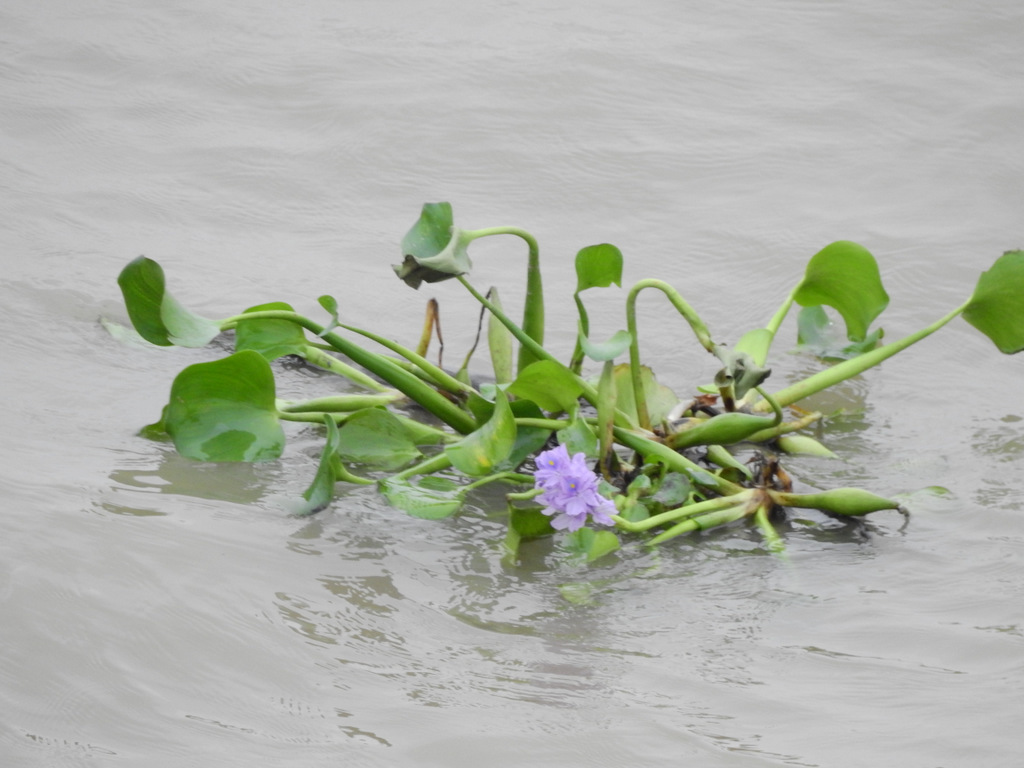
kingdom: Plantae
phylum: Tracheophyta
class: Liliopsida
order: Commelinales
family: Pontederiaceae
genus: Pontederia
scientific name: Pontederia crassipes
